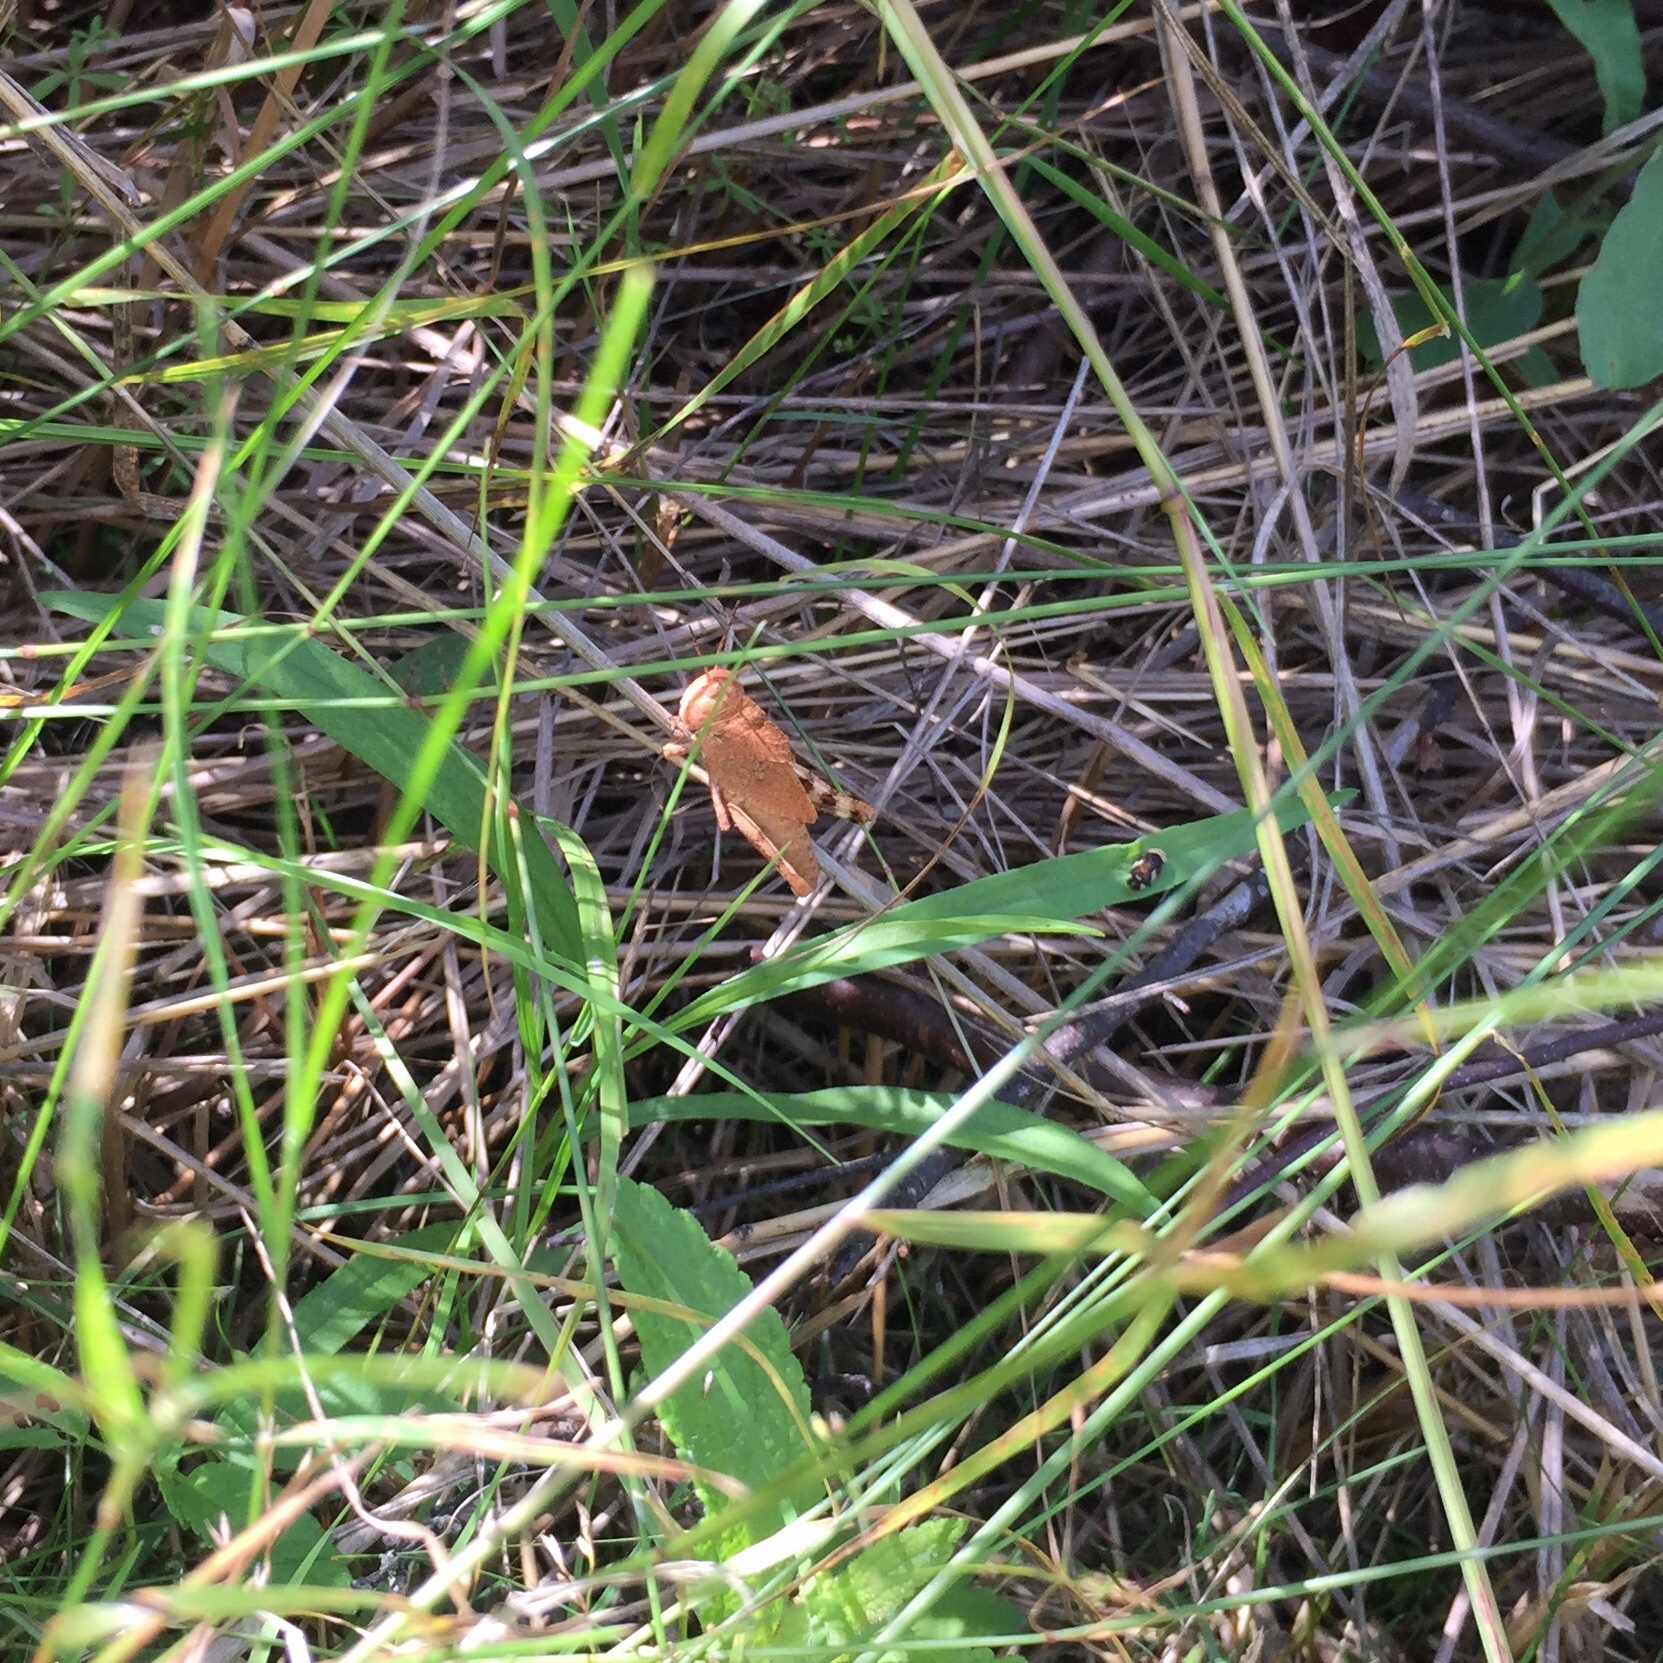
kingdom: Animalia
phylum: Arthropoda
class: Insecta
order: Orthoptera
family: Acrididae
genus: Dissosteira
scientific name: Dissosteira carolina
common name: Carolina grasshopper
